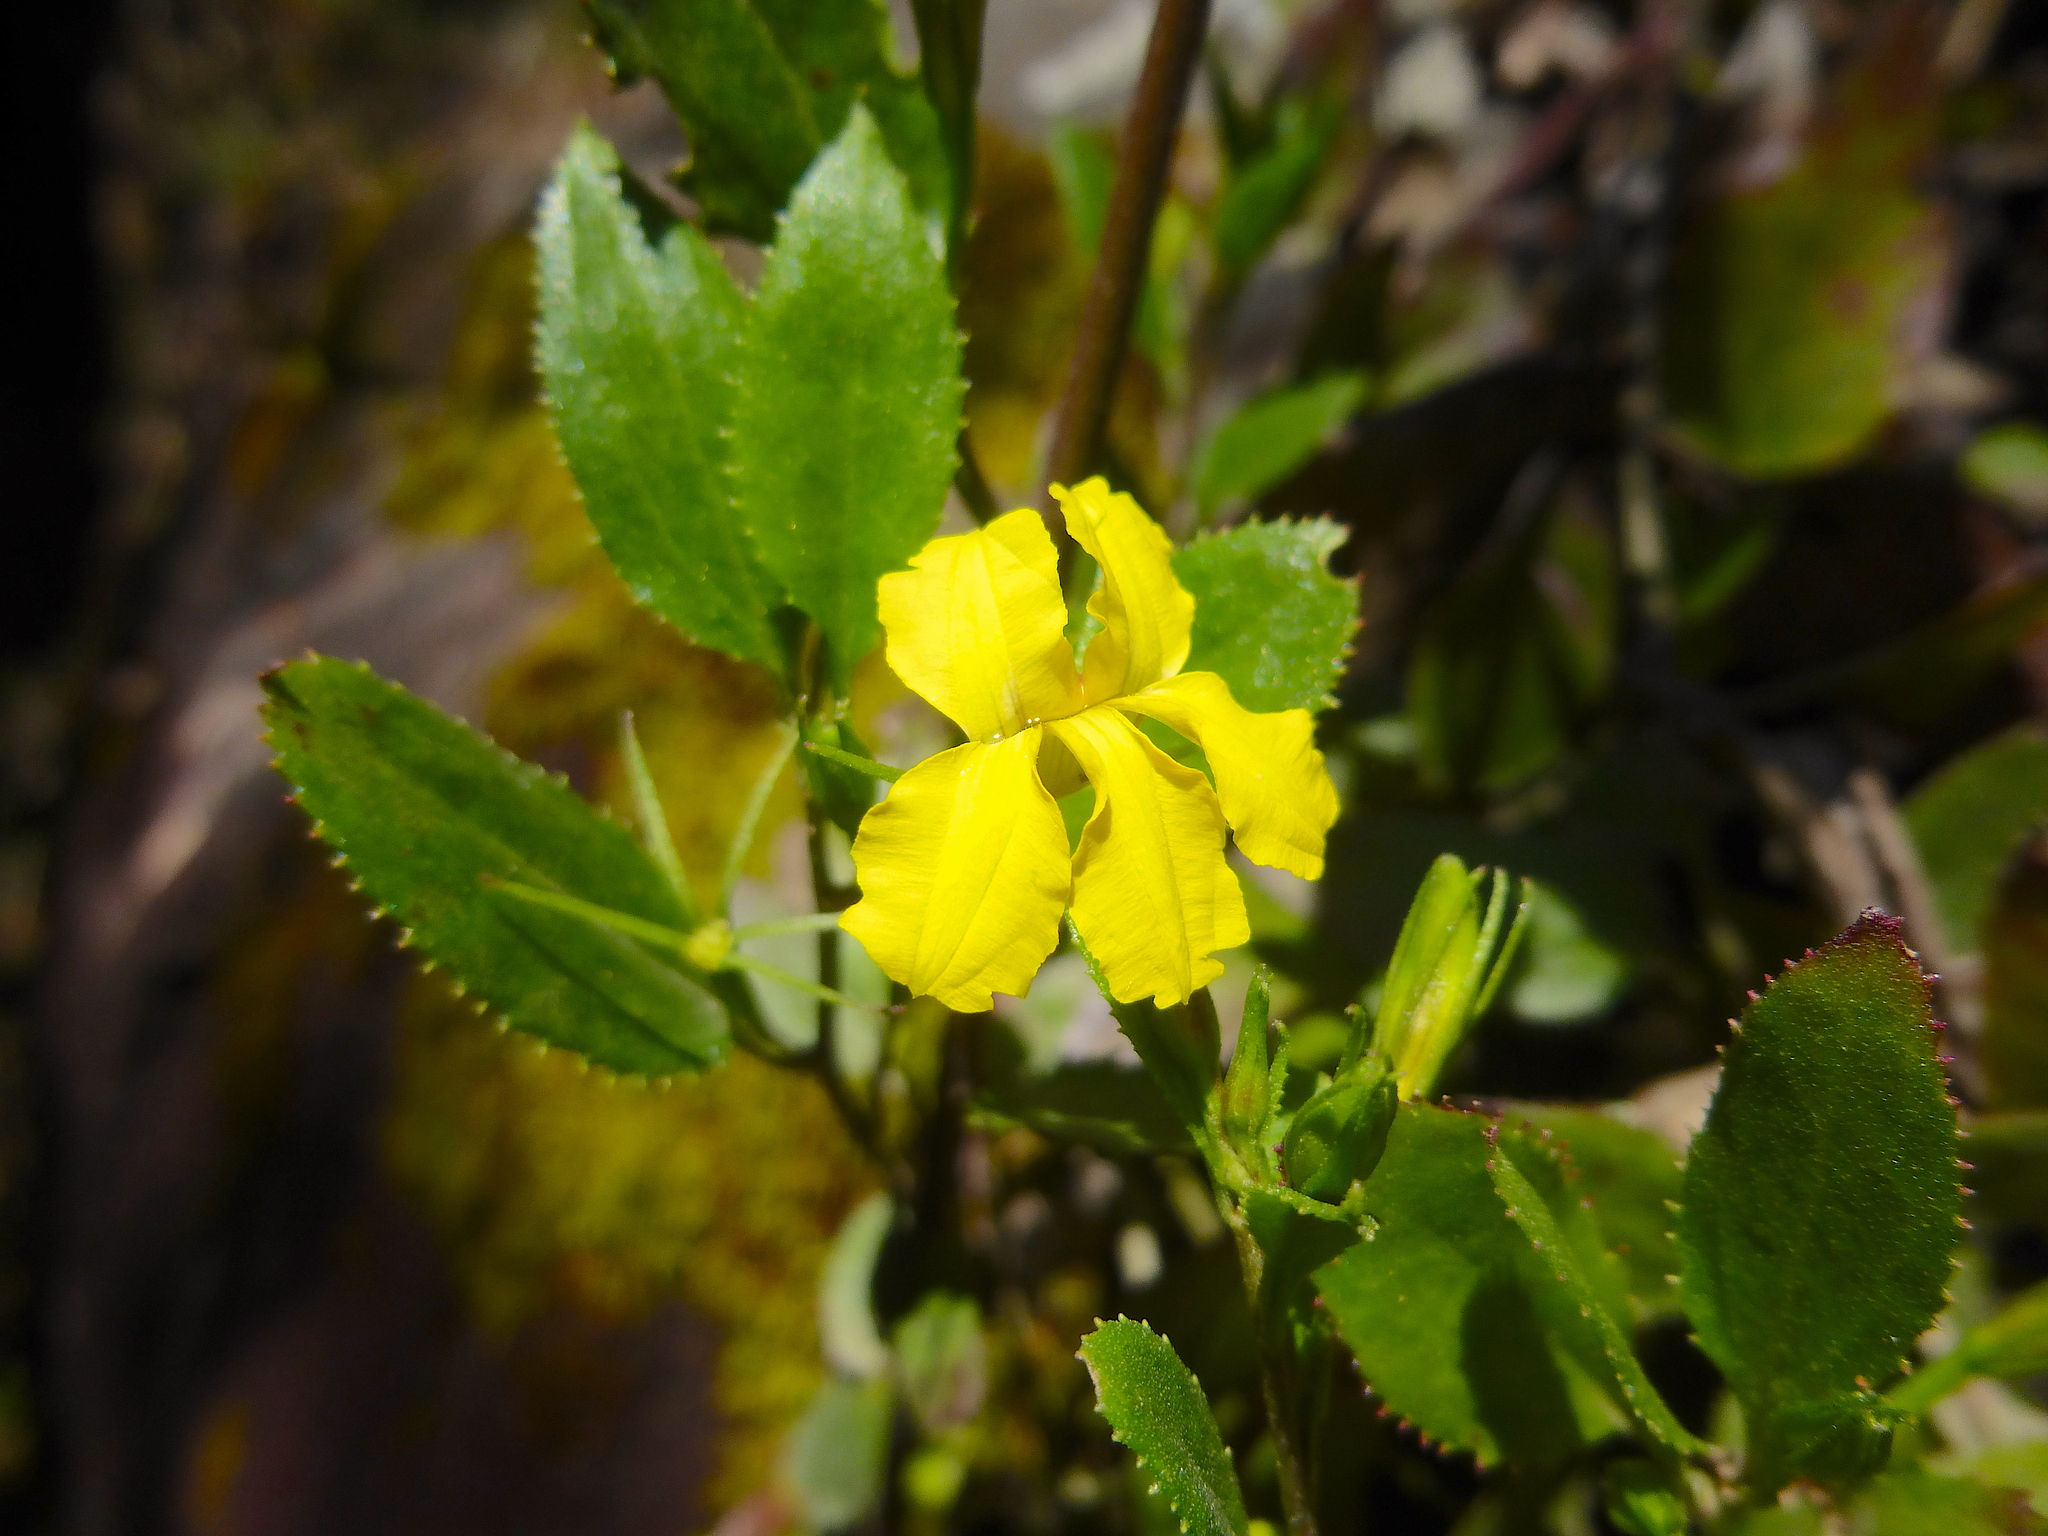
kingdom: Plantae
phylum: Tracheophyta
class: Magnoliopsida
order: Asterales
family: Goodeniaceae
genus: Goodenia
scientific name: Goodenia ovata
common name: Hop goodenia
